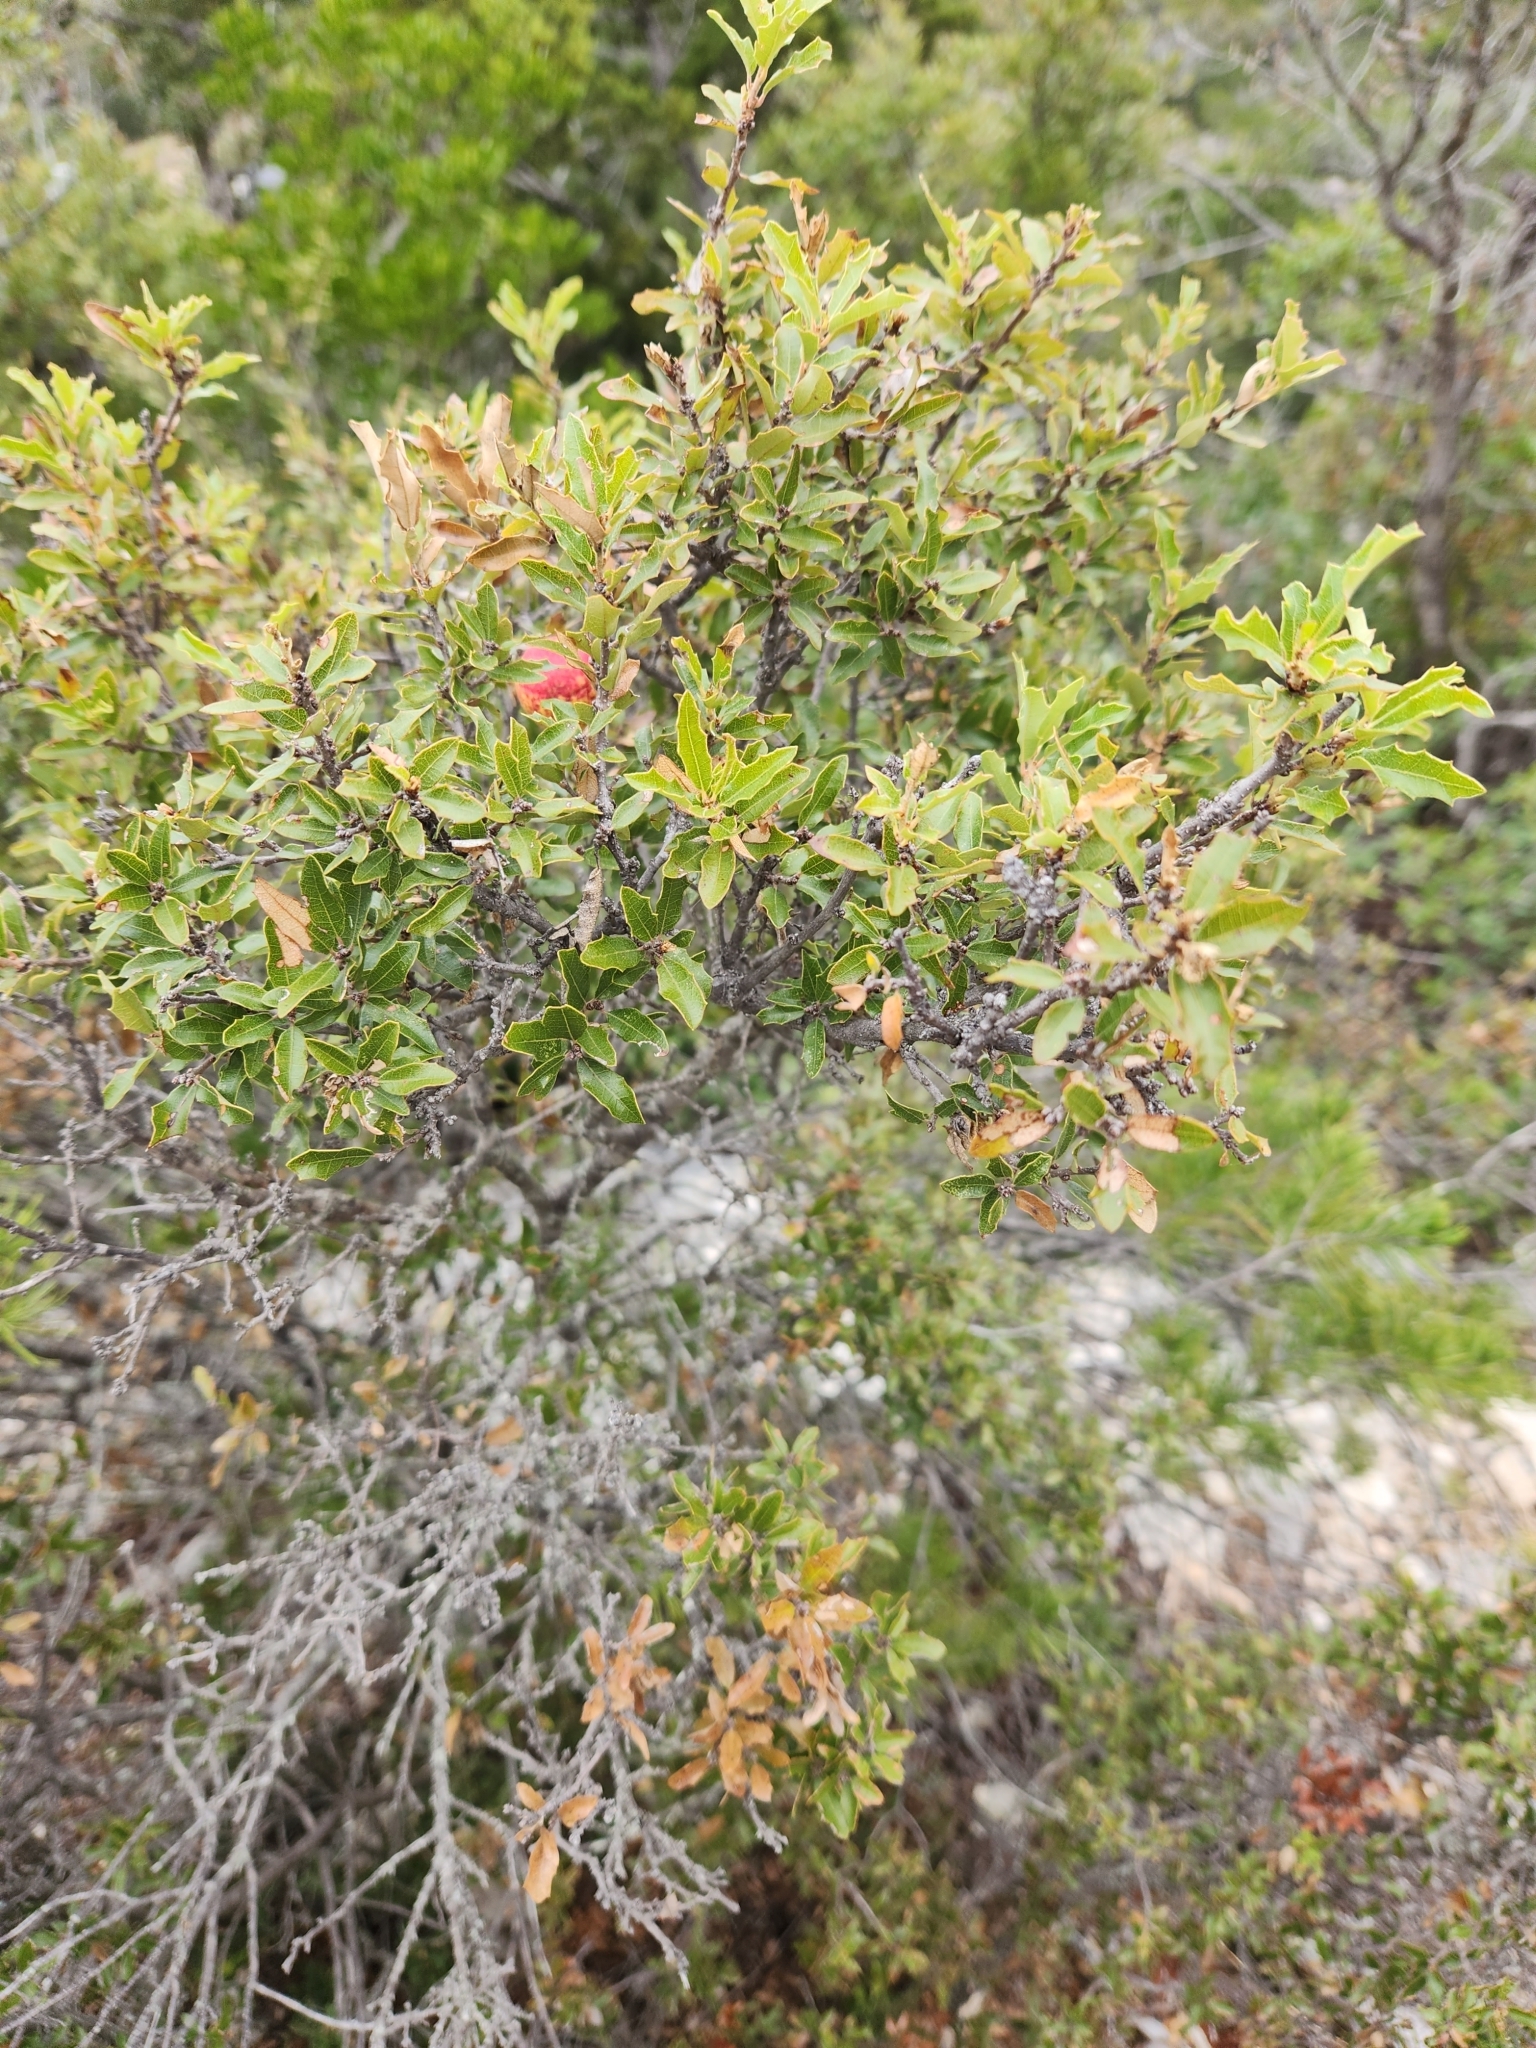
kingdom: Plantae
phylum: Tracheophyta
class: Magnoliopsida
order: Fagales
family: Fagaceae
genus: Quercus
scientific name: Quercus vaseyana
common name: Sandpaper oak
